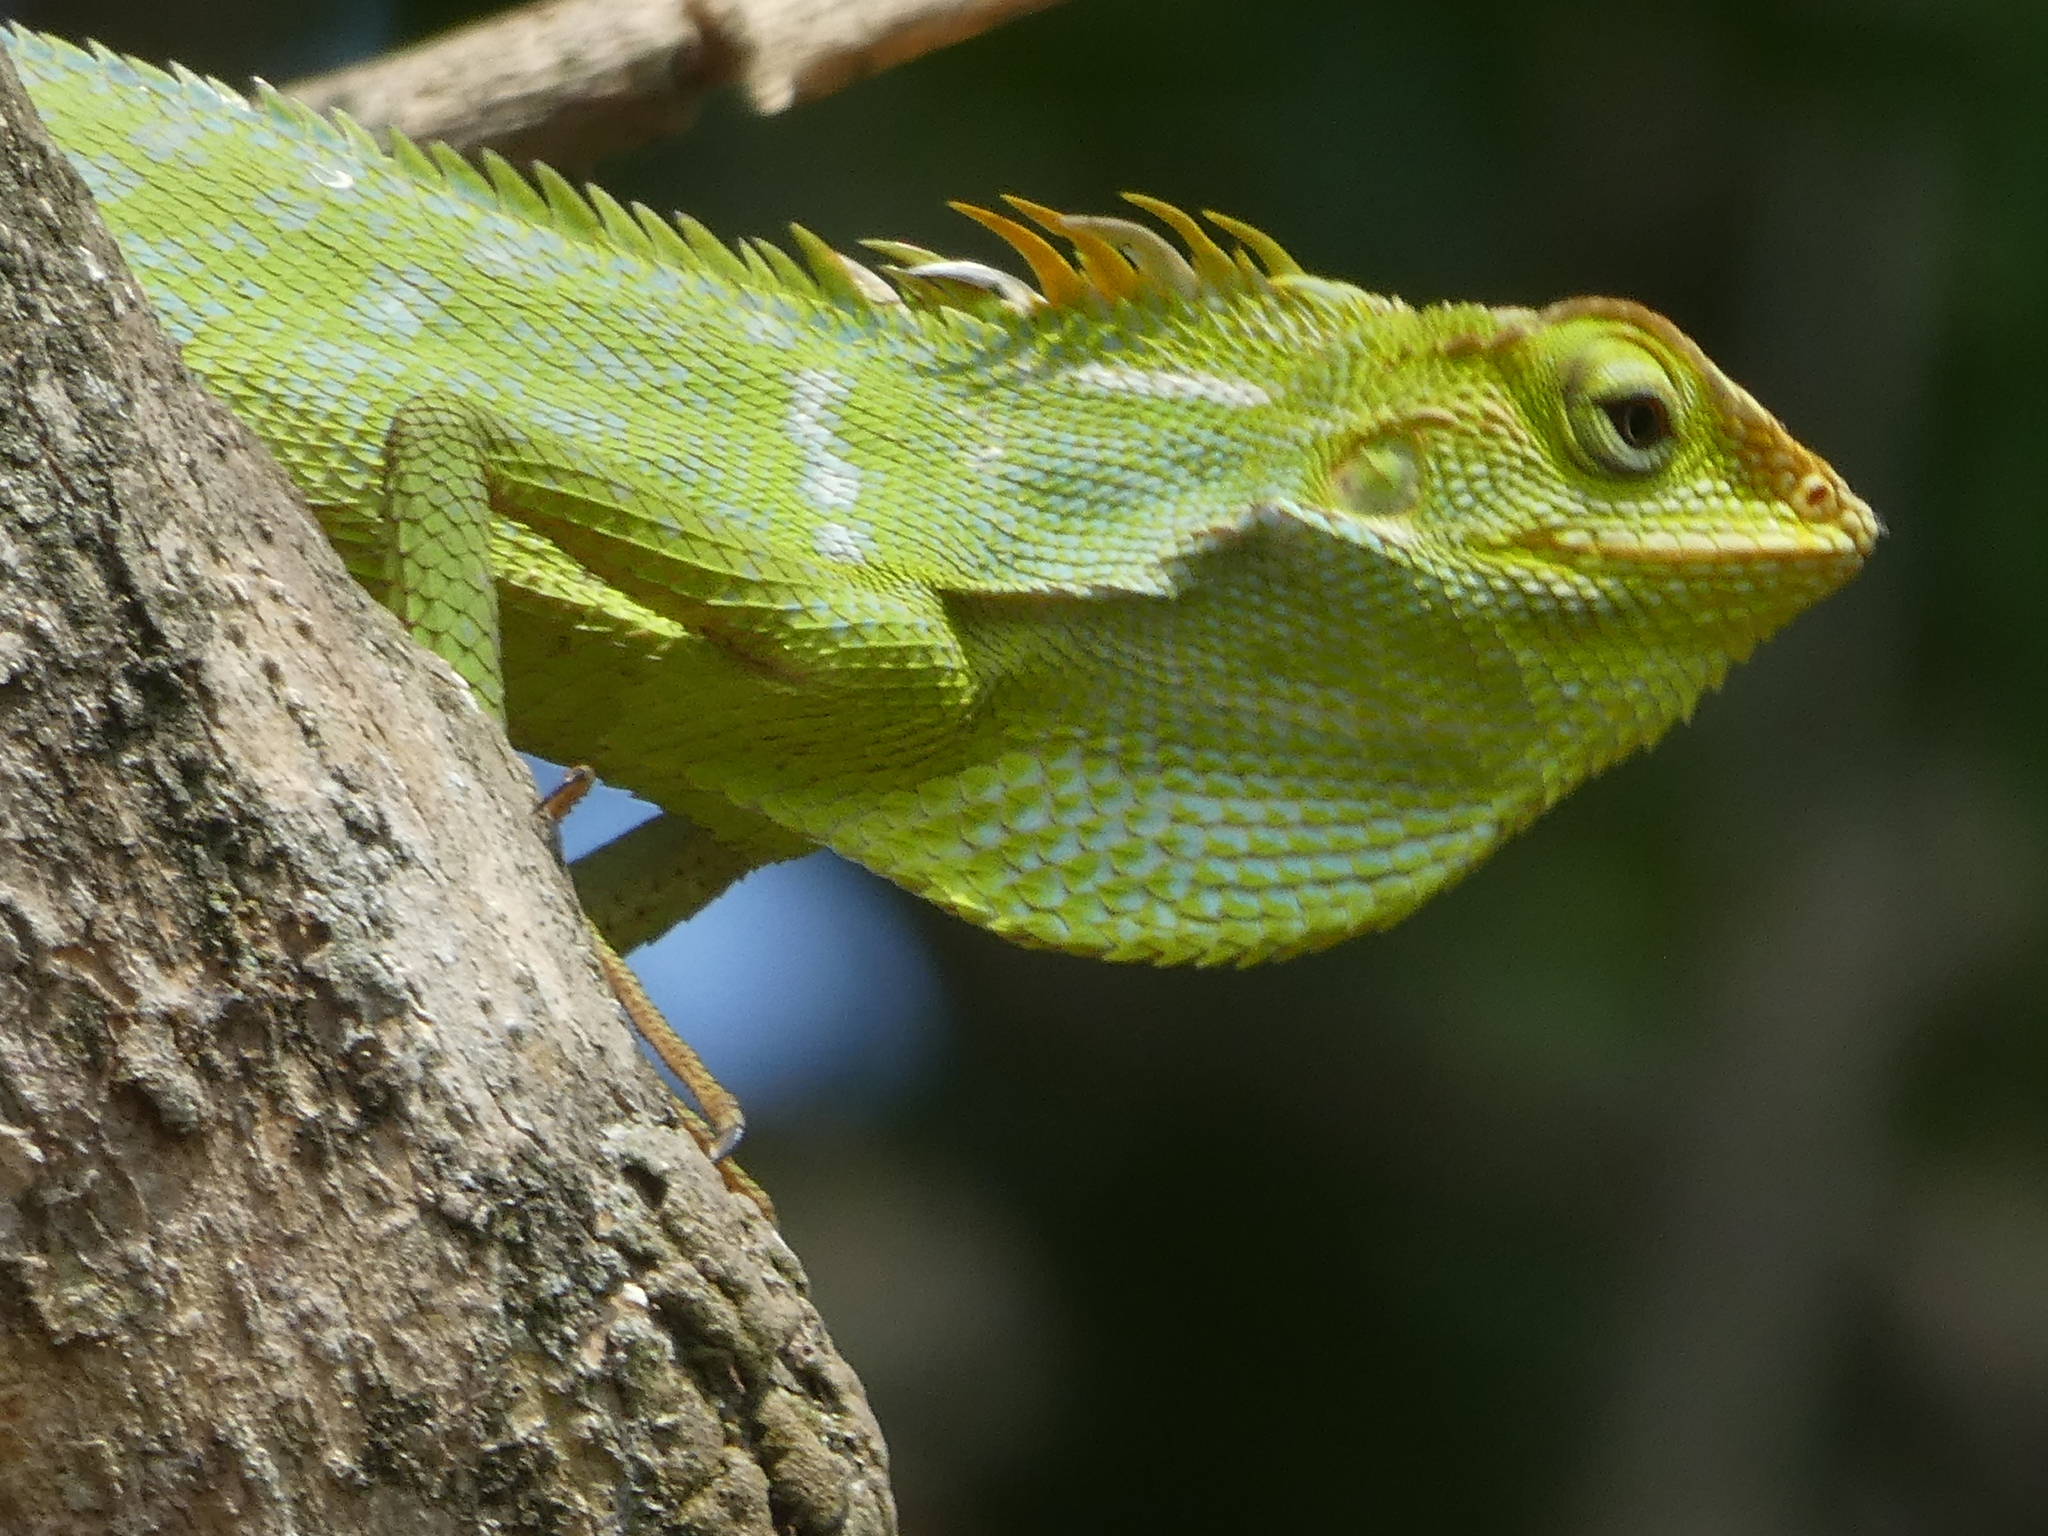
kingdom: Animalia
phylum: Chordata
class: Squamata
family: Agamidae
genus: Bronchocela
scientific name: Bronchocela jubata
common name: Maned forest lizard
